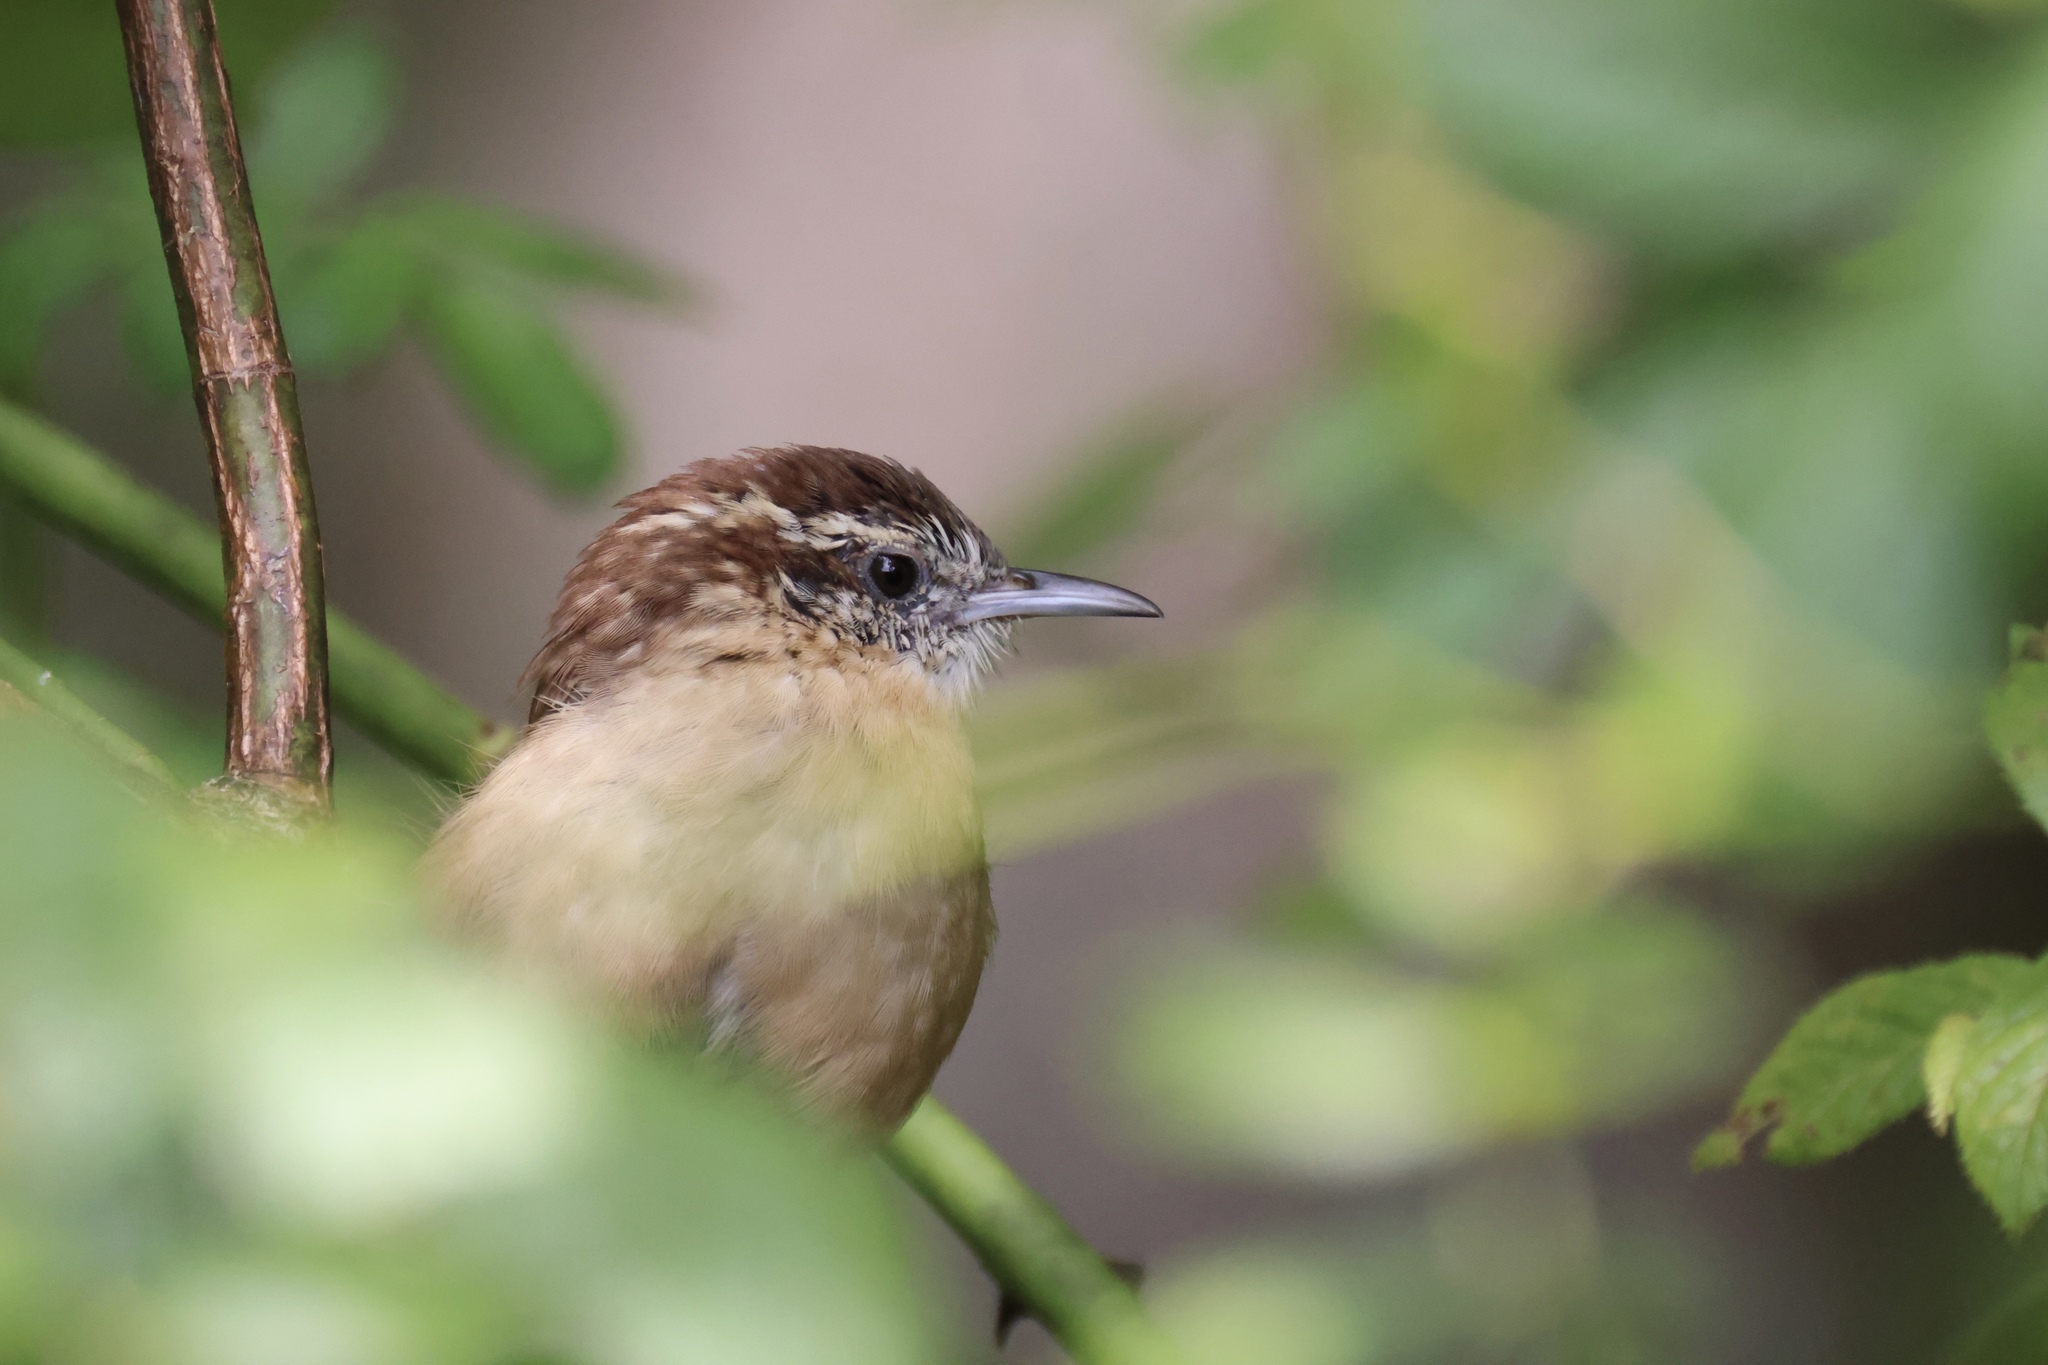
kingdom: Animalia
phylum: Chordata
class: Aves
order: Passeriformes
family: Troglodytidae
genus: Thryothorus
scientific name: Thryothorus ludovicianus
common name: Carolina wren
